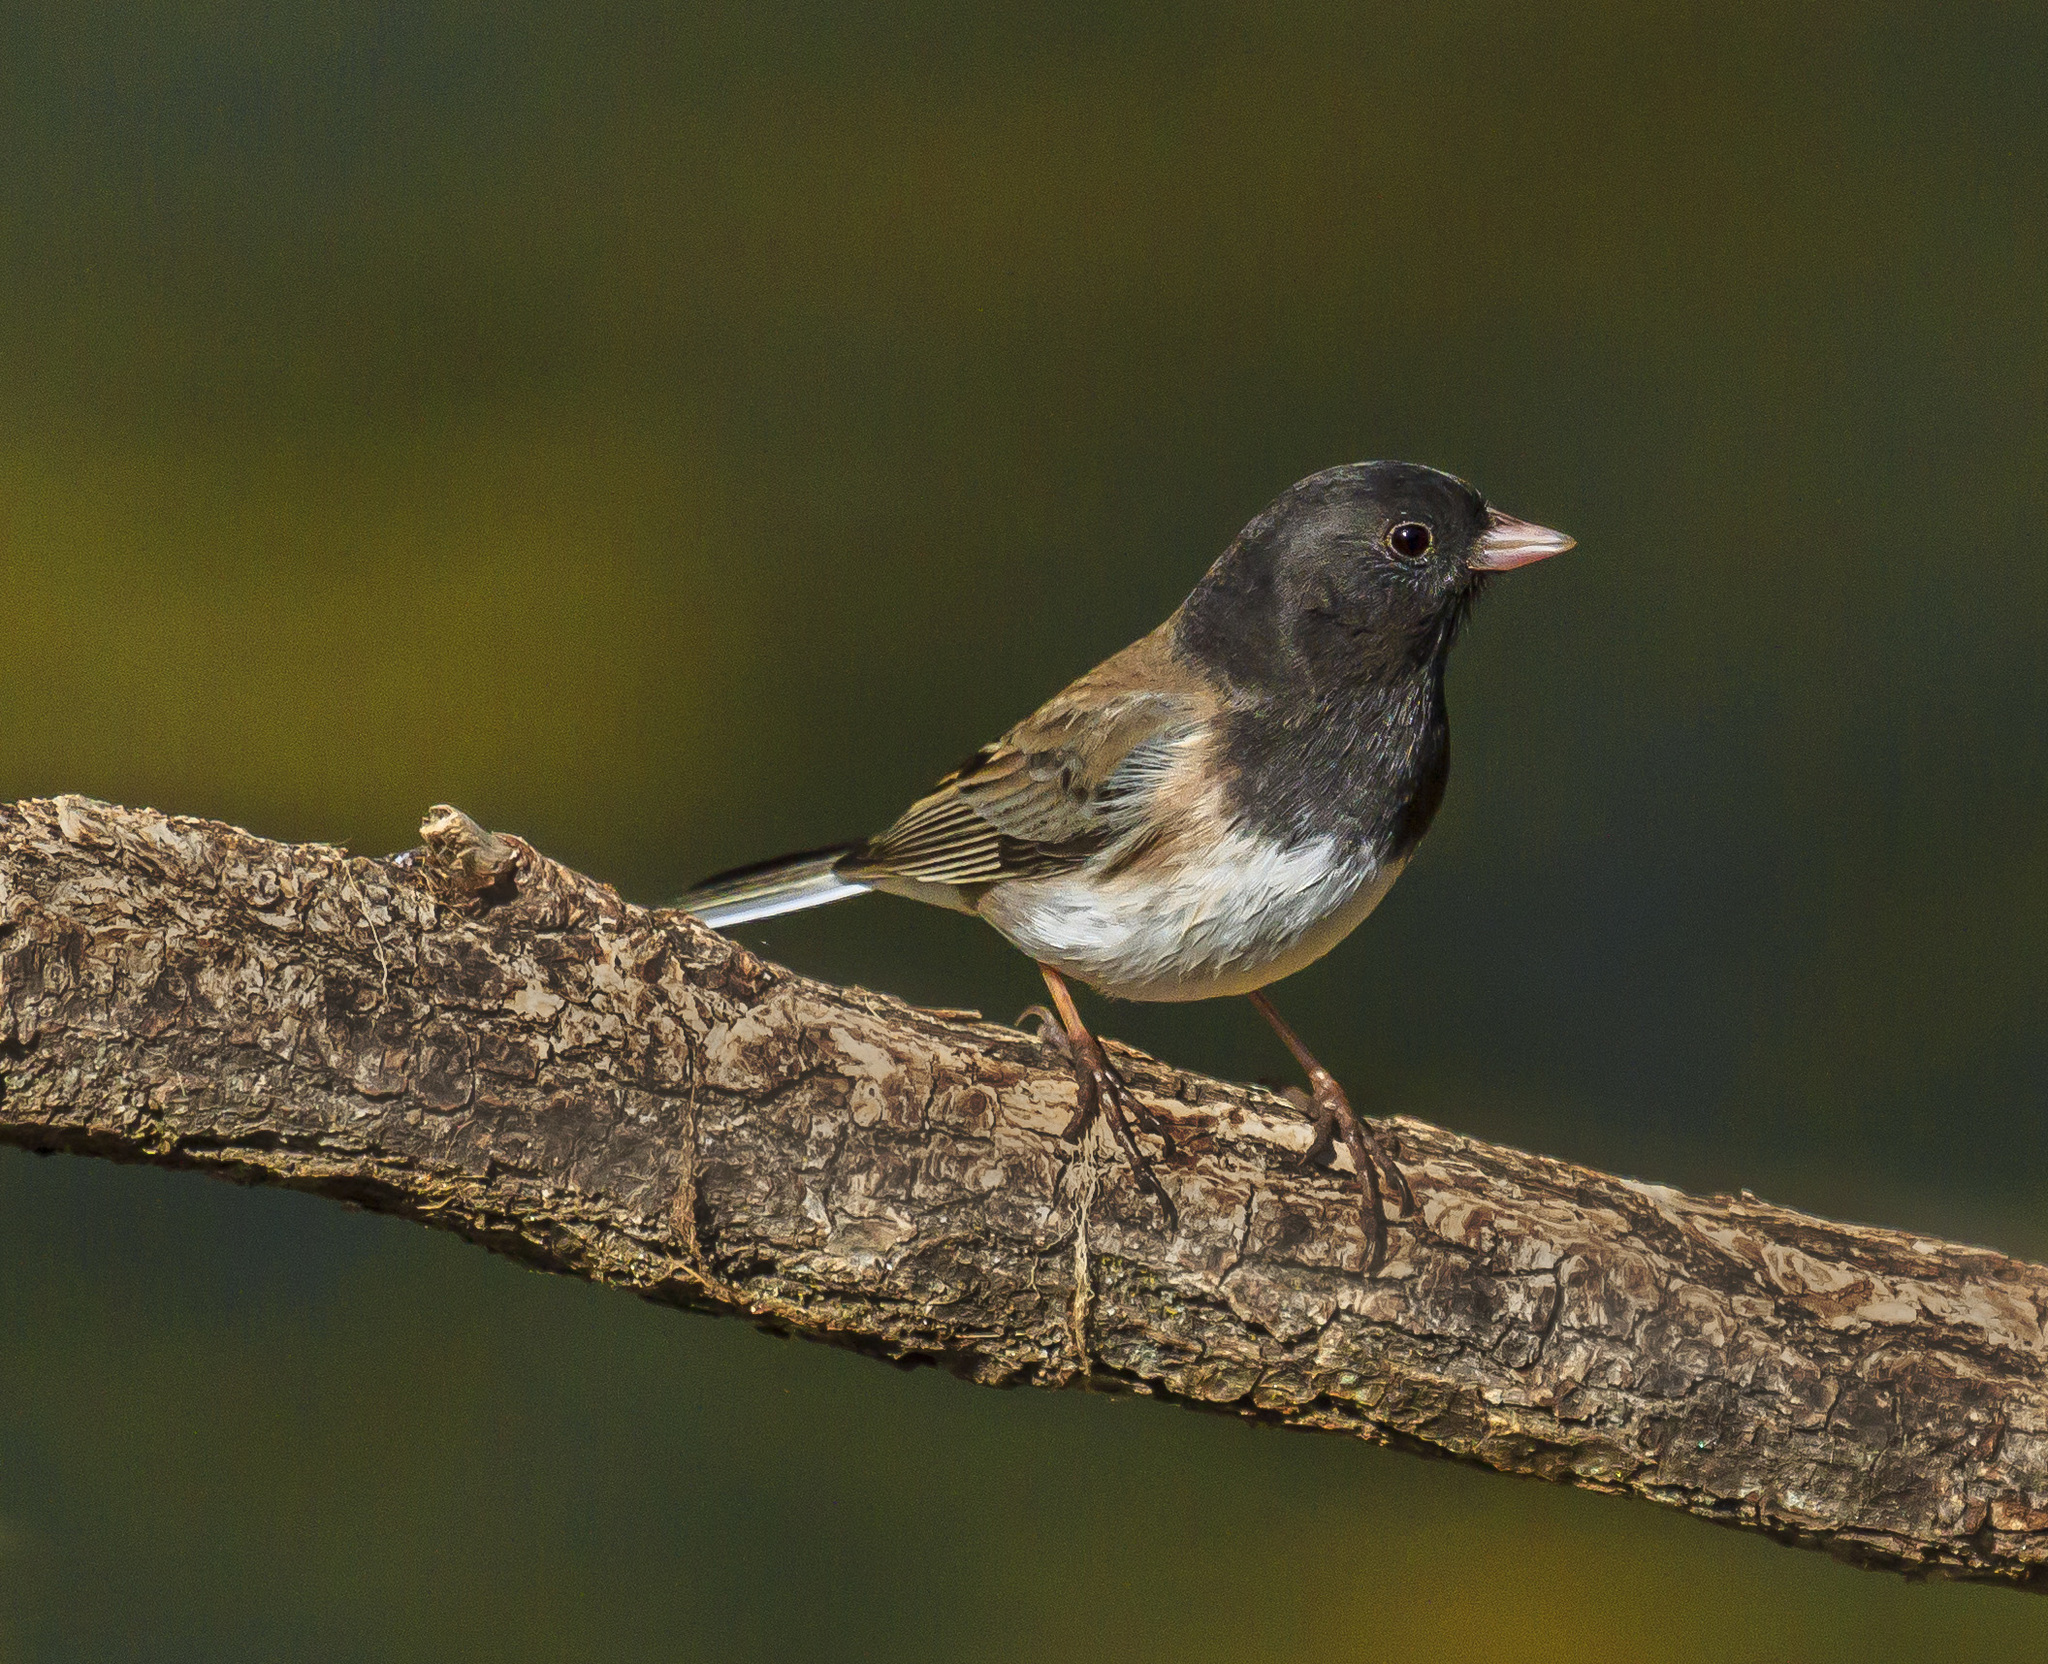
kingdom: Animalia
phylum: Chordata
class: Aves
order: Passeriformes
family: Passerellidae
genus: Junco
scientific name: Junco hyemalis
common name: Dark-eyed junco
